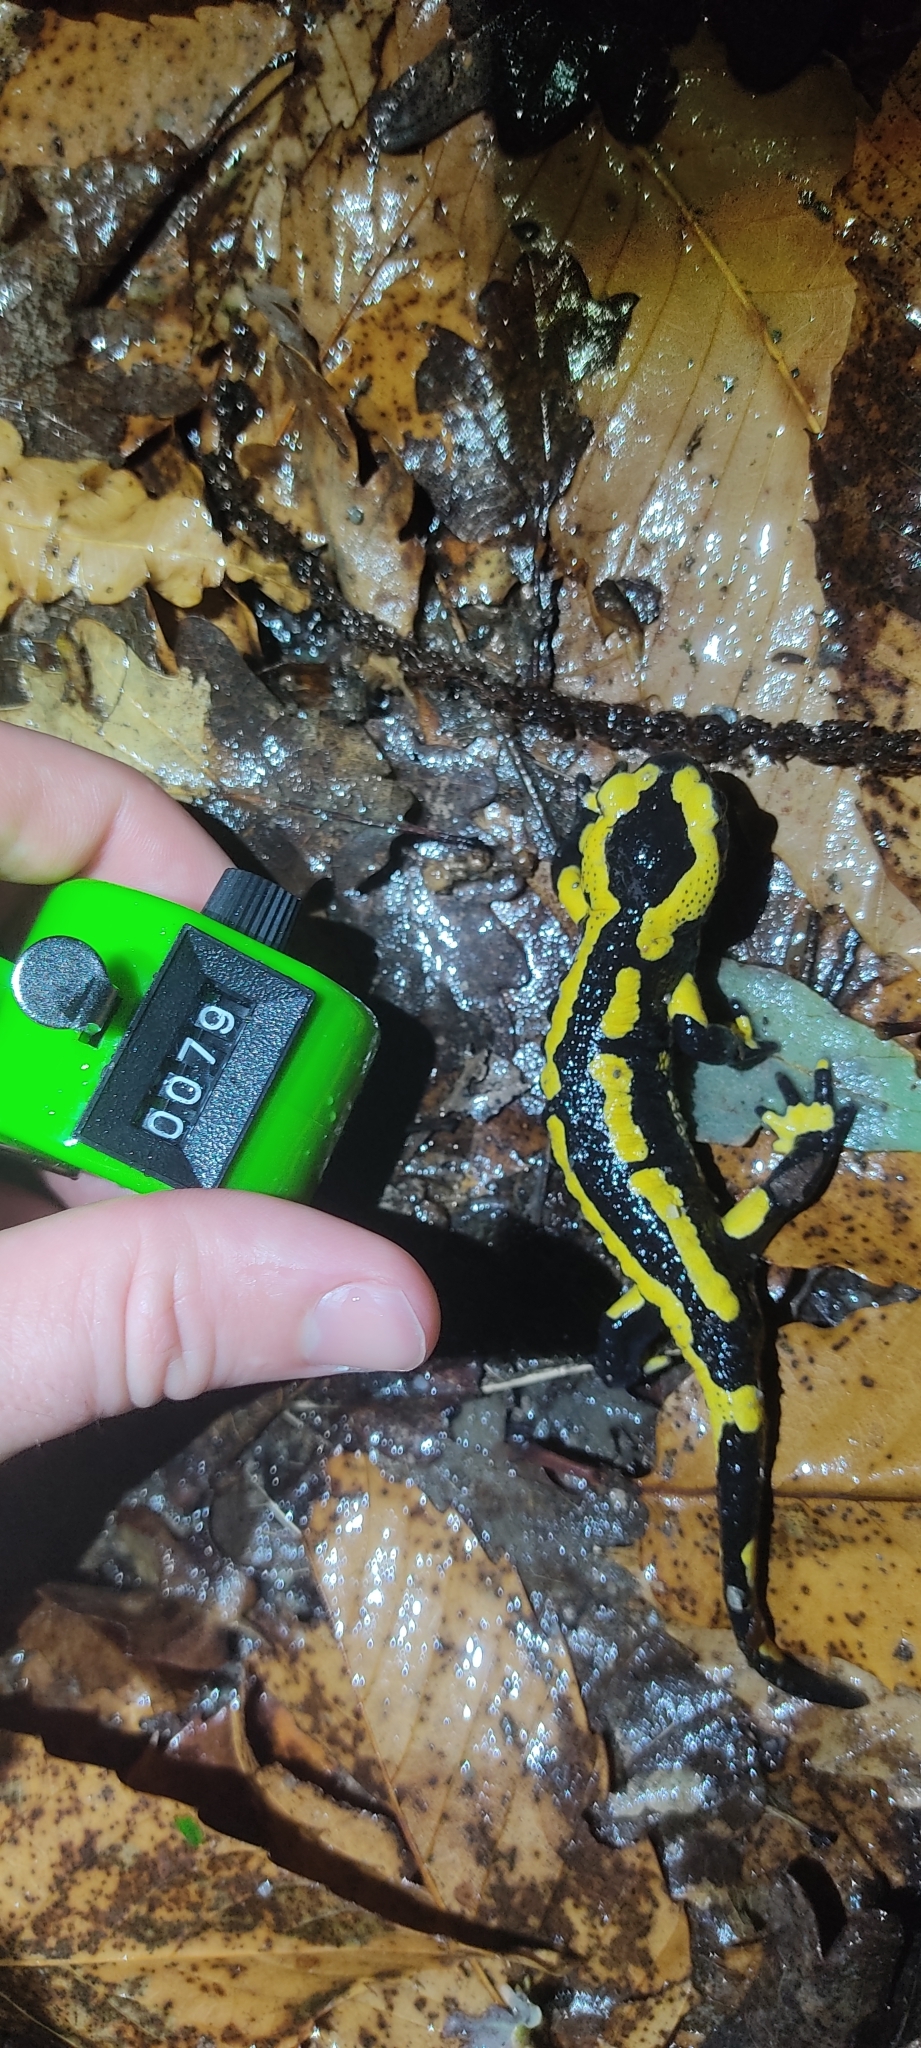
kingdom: Animalia
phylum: Chordata
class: Amphibia
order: Caudata
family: Salamandridae
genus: Salamandra
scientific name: Salamandra salamandra
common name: Fire salamander
